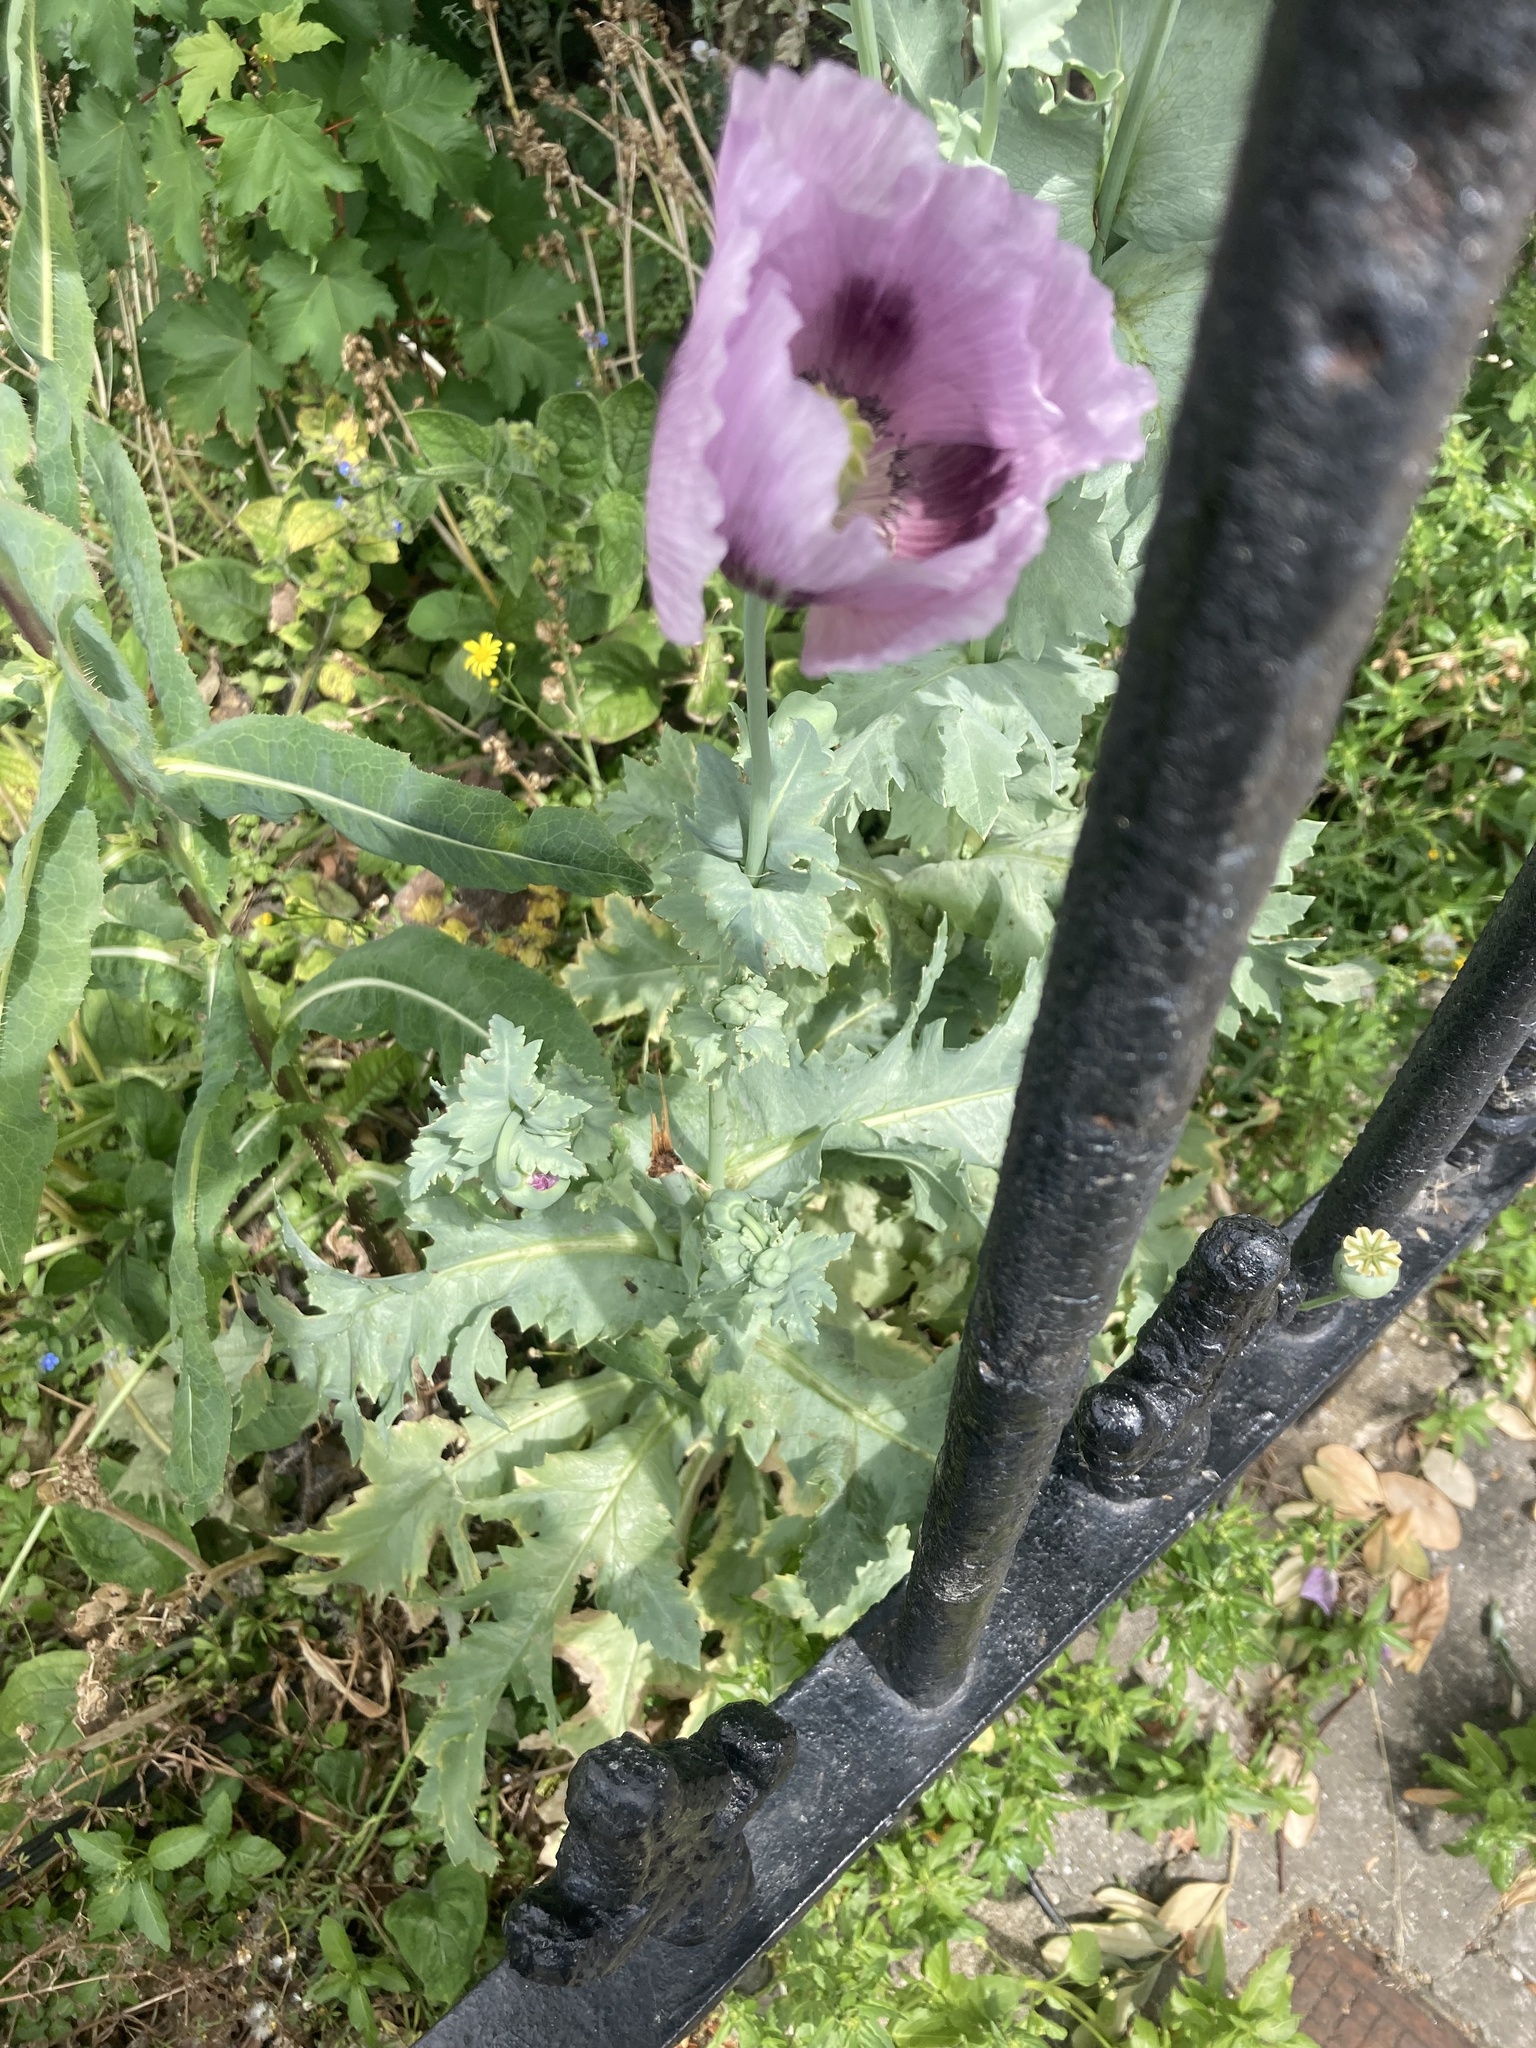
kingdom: Plantae
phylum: Tracheophyta
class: Magnoliopsida
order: Ranunculales
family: Papaveraceae
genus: Papaver
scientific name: Papaver somniferum
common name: Opium poppy
